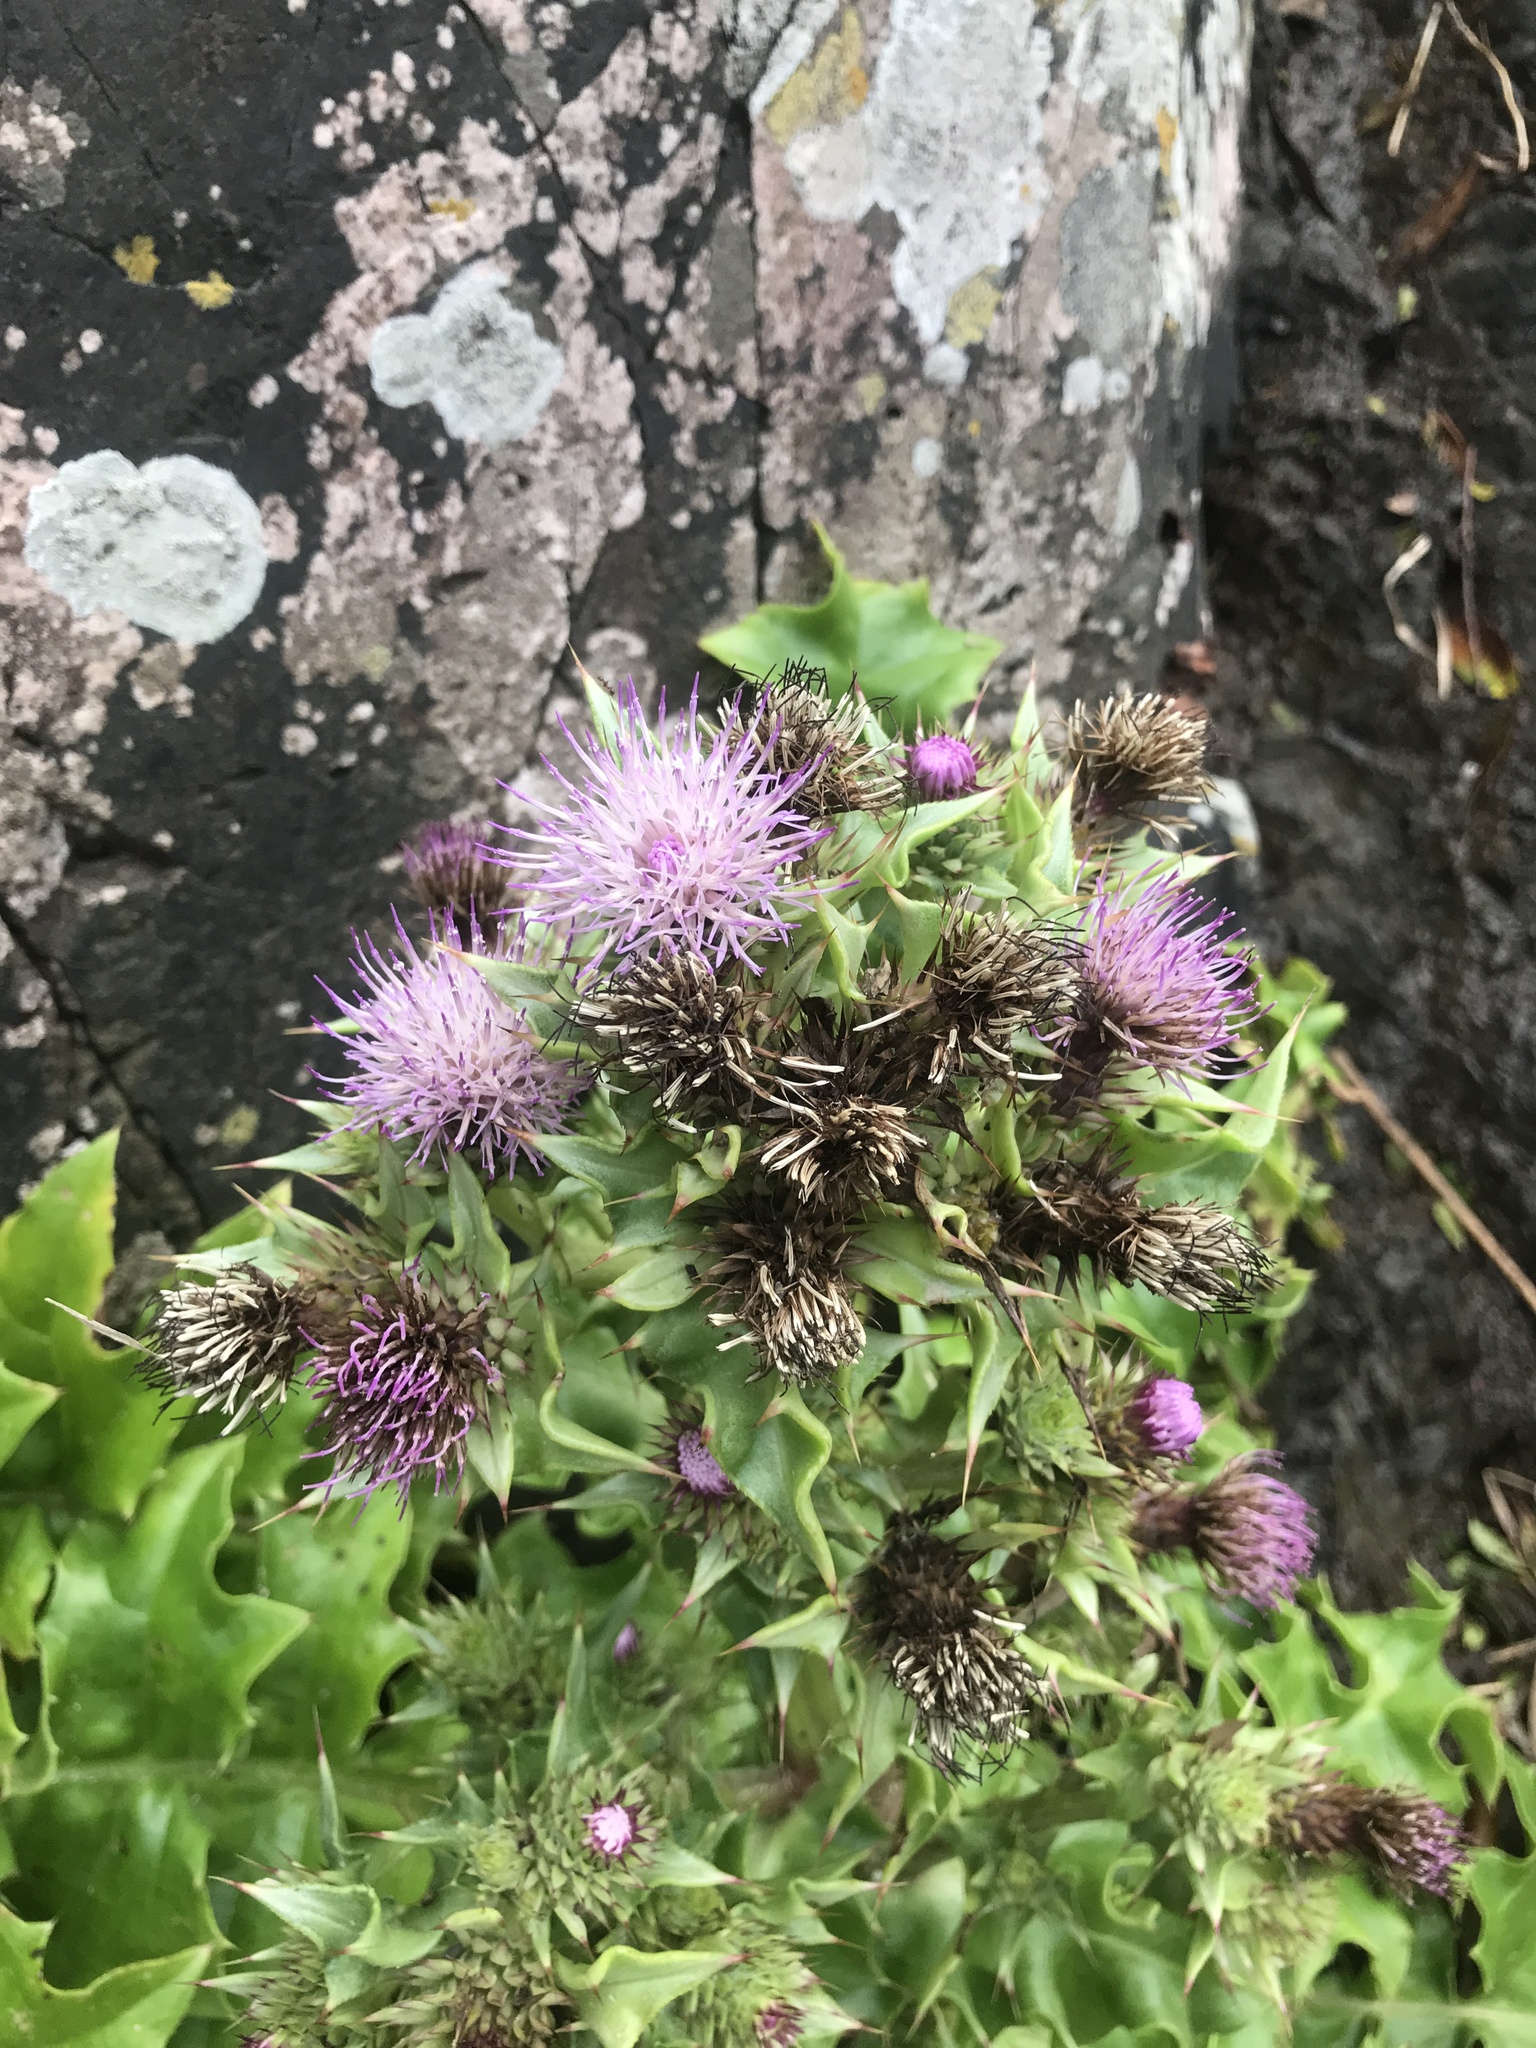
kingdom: Plantae
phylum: Tracheophyta
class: Magnoliopsida
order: Asterales
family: Asteraceae
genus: Cirsium
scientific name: Cirsium spinosum
